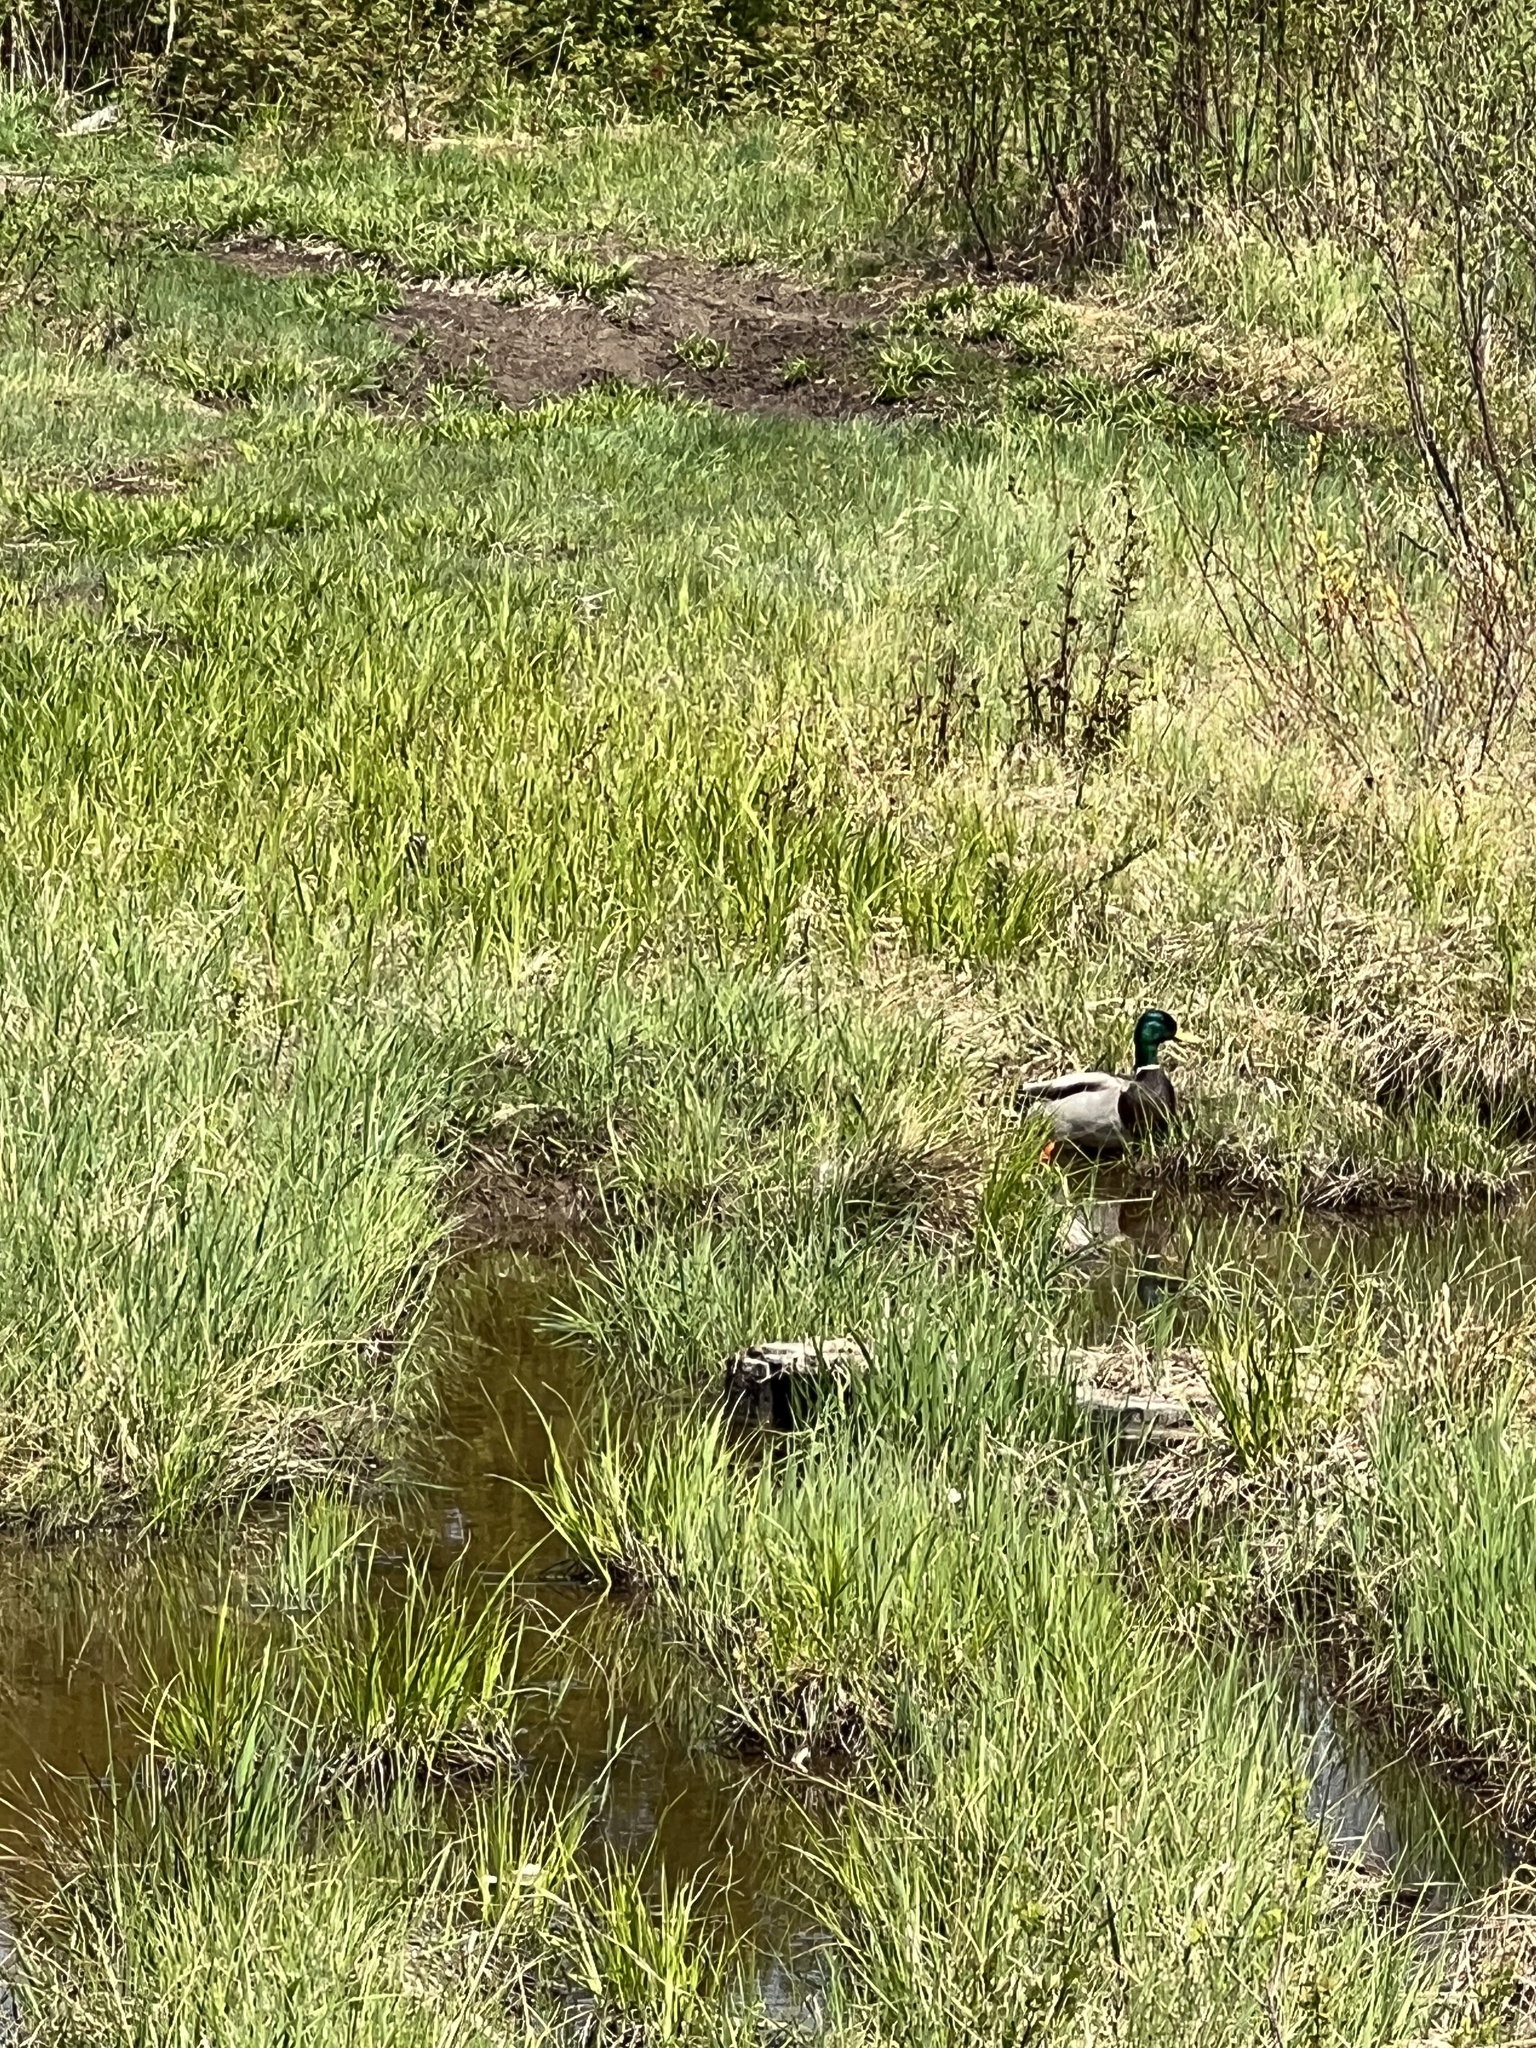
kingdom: Animalia
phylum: Chordata
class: Aves
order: Anseriformes
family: Anatidae
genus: Anas
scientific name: Anas platyrhynchos
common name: Mallard
